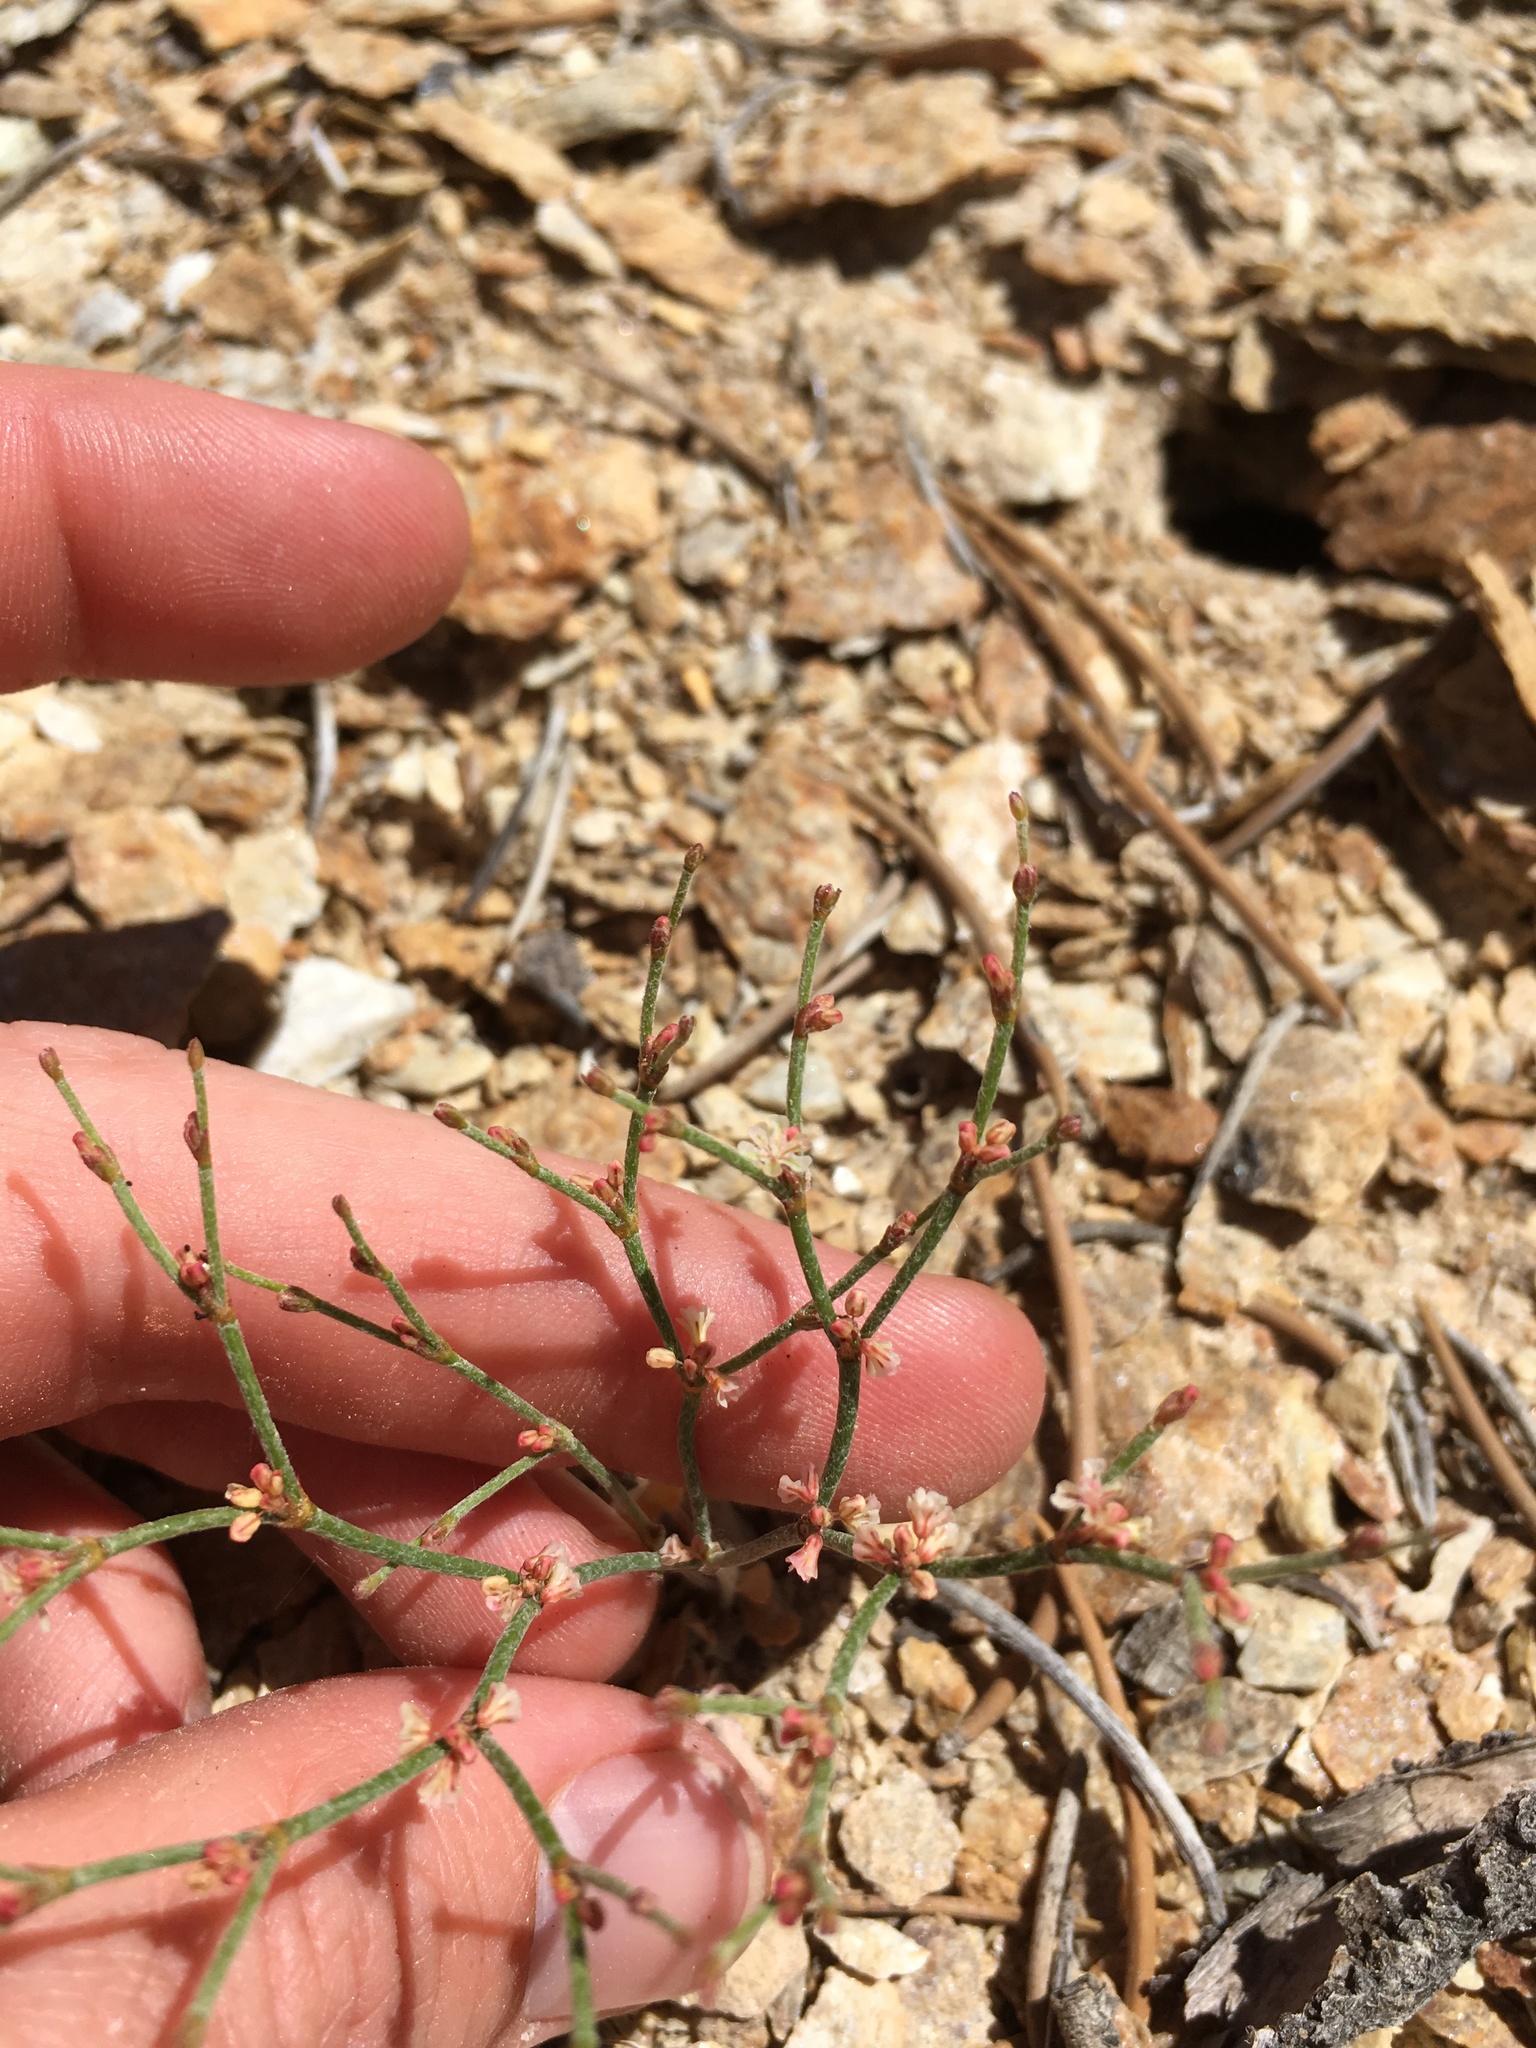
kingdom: Plantae
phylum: Tracheophyta
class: Magnoliopsida
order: Caryophyllales
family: Polygonaceae
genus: Eriogonum
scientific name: Eriogonum palmerianum
